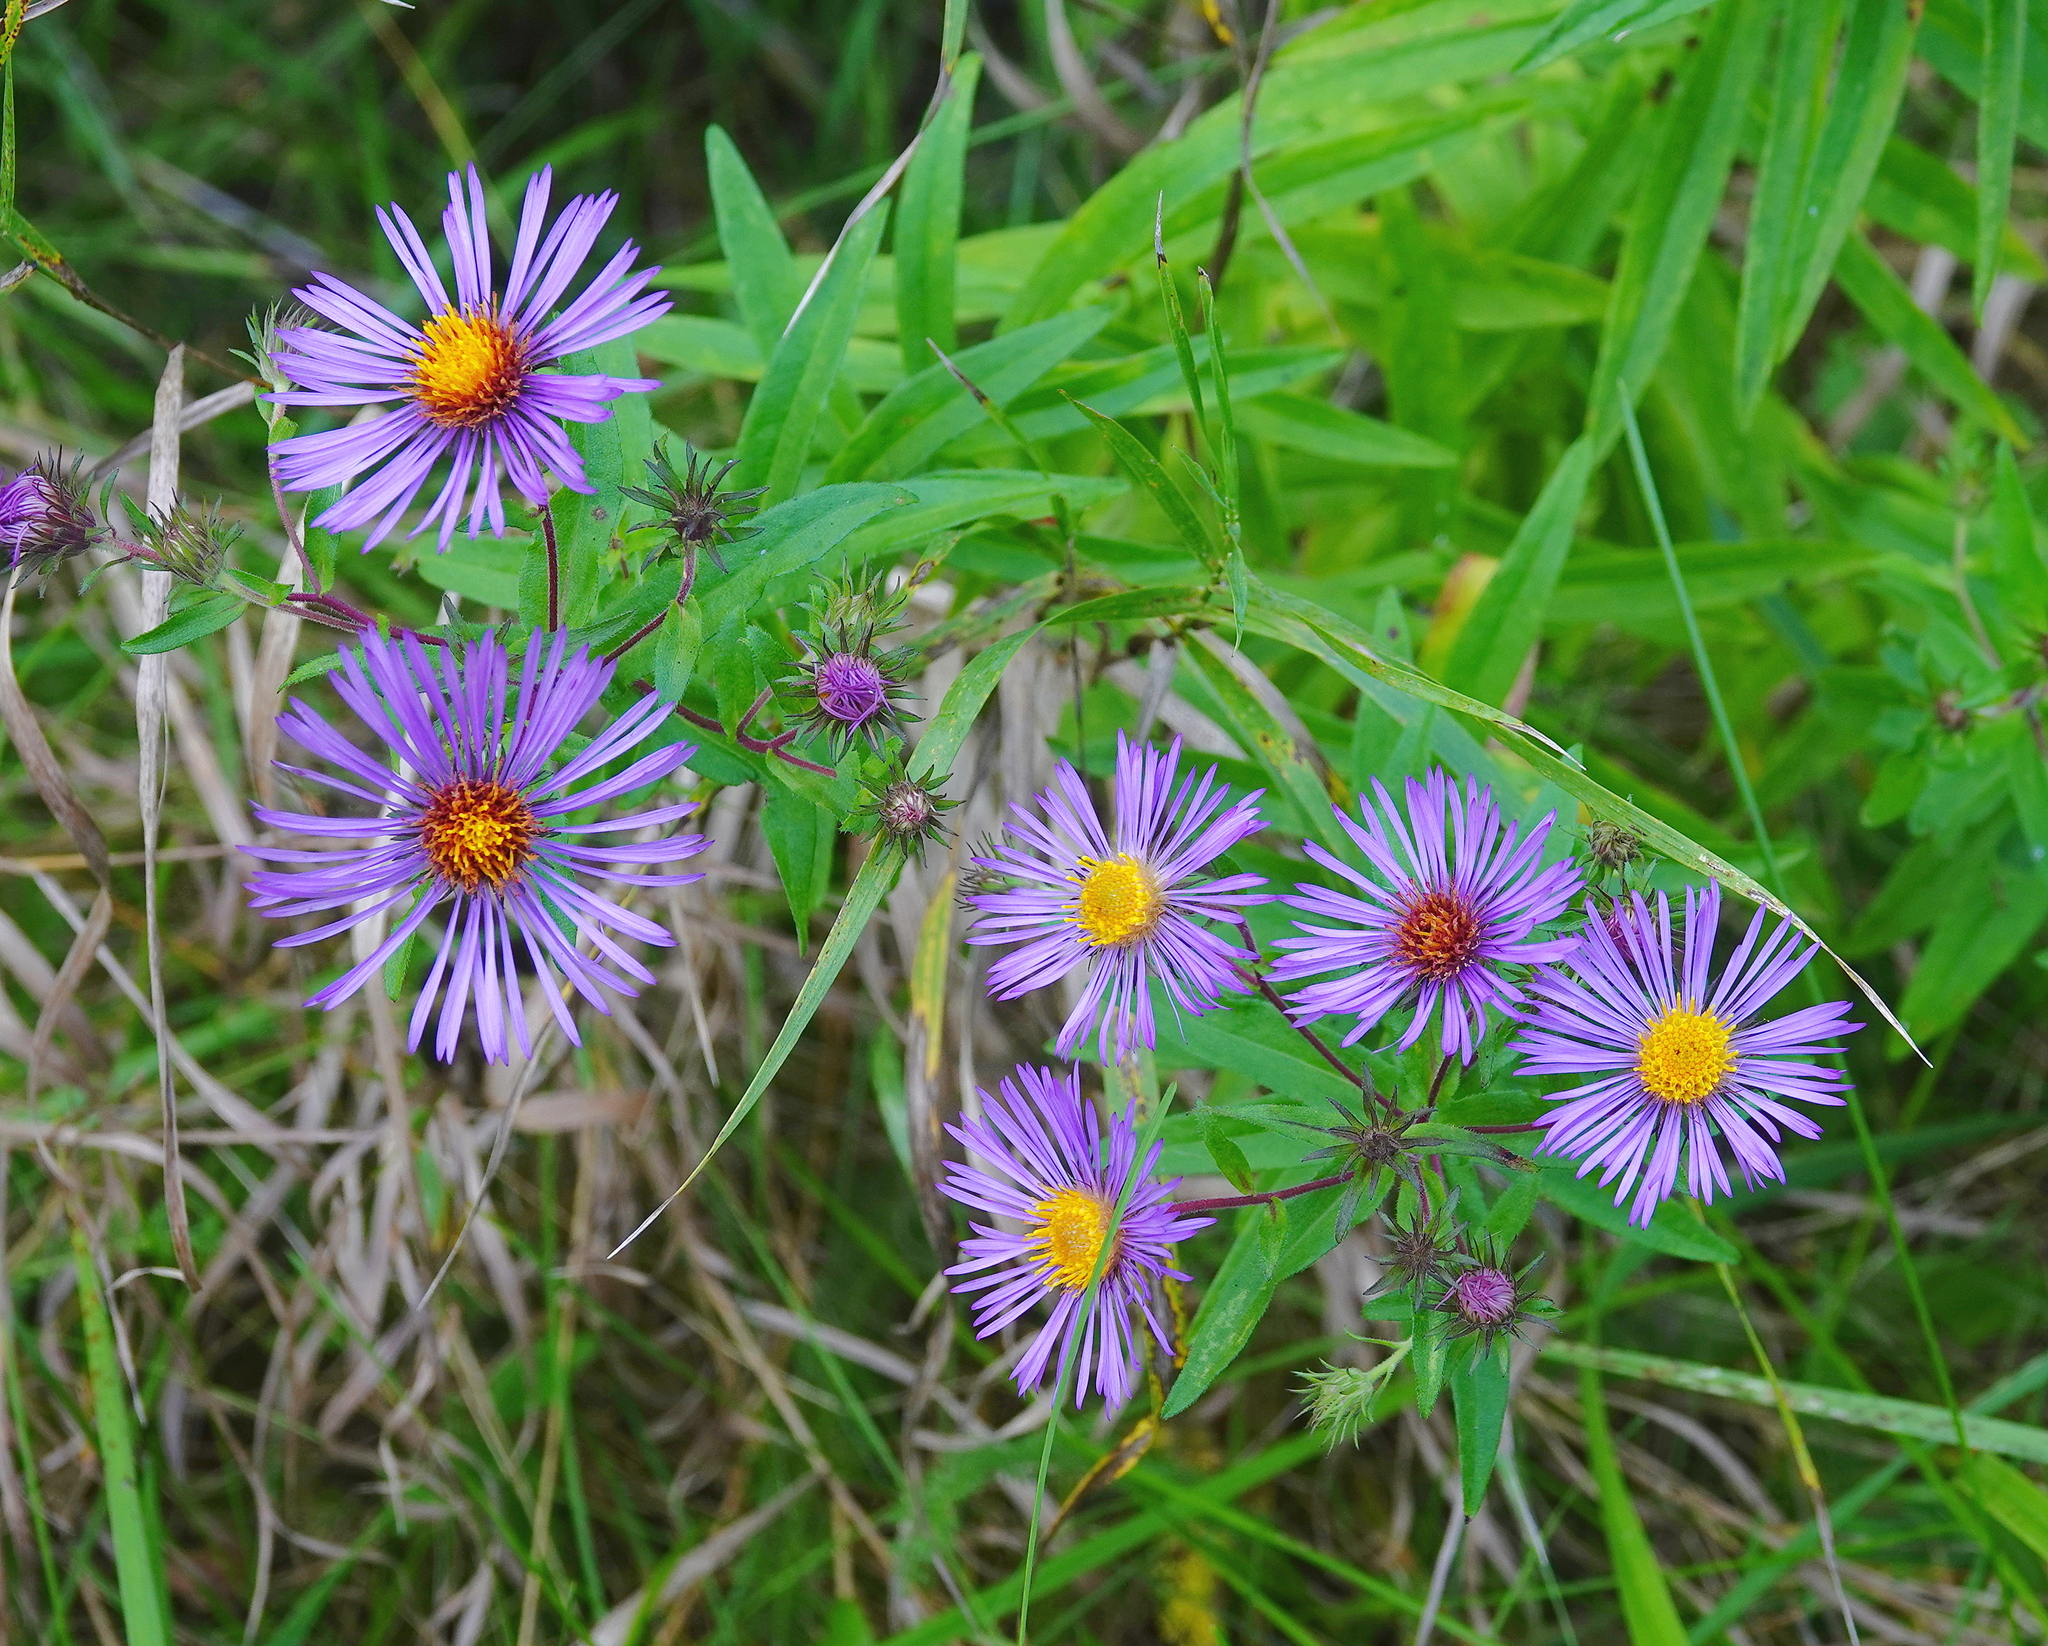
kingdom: Plantae
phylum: Tracheophyta
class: Magnoliopsida
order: Asterales
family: Asteraceae
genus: Symphyotrichum
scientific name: Symphyotrichum novae-angliae
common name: Michaelmas daisy
